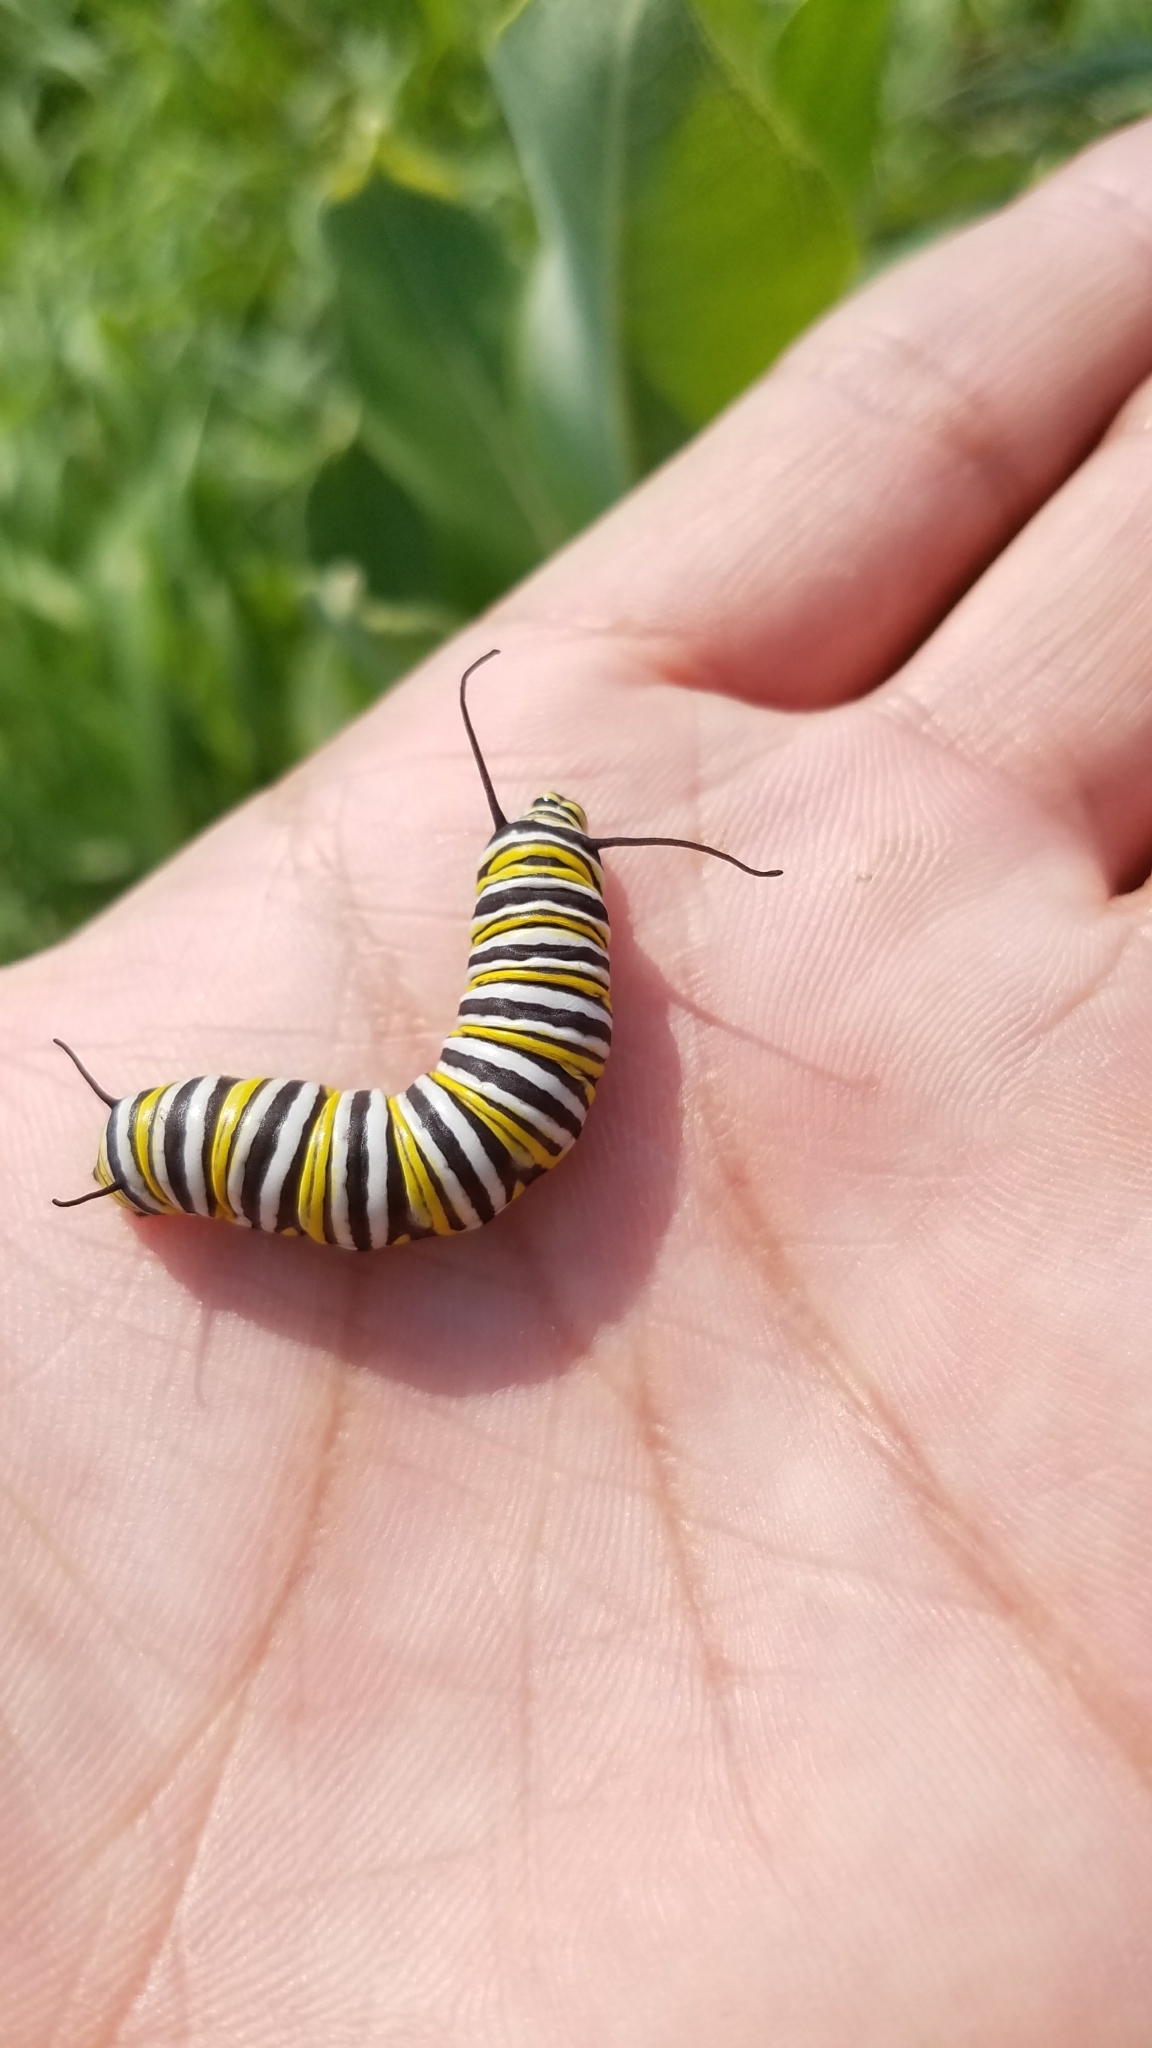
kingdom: Animalia
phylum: Arthropoda
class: Insecta
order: Lepidoptera
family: Nymphalidae
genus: Danaus
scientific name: Danaus plexippus
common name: Monarch
